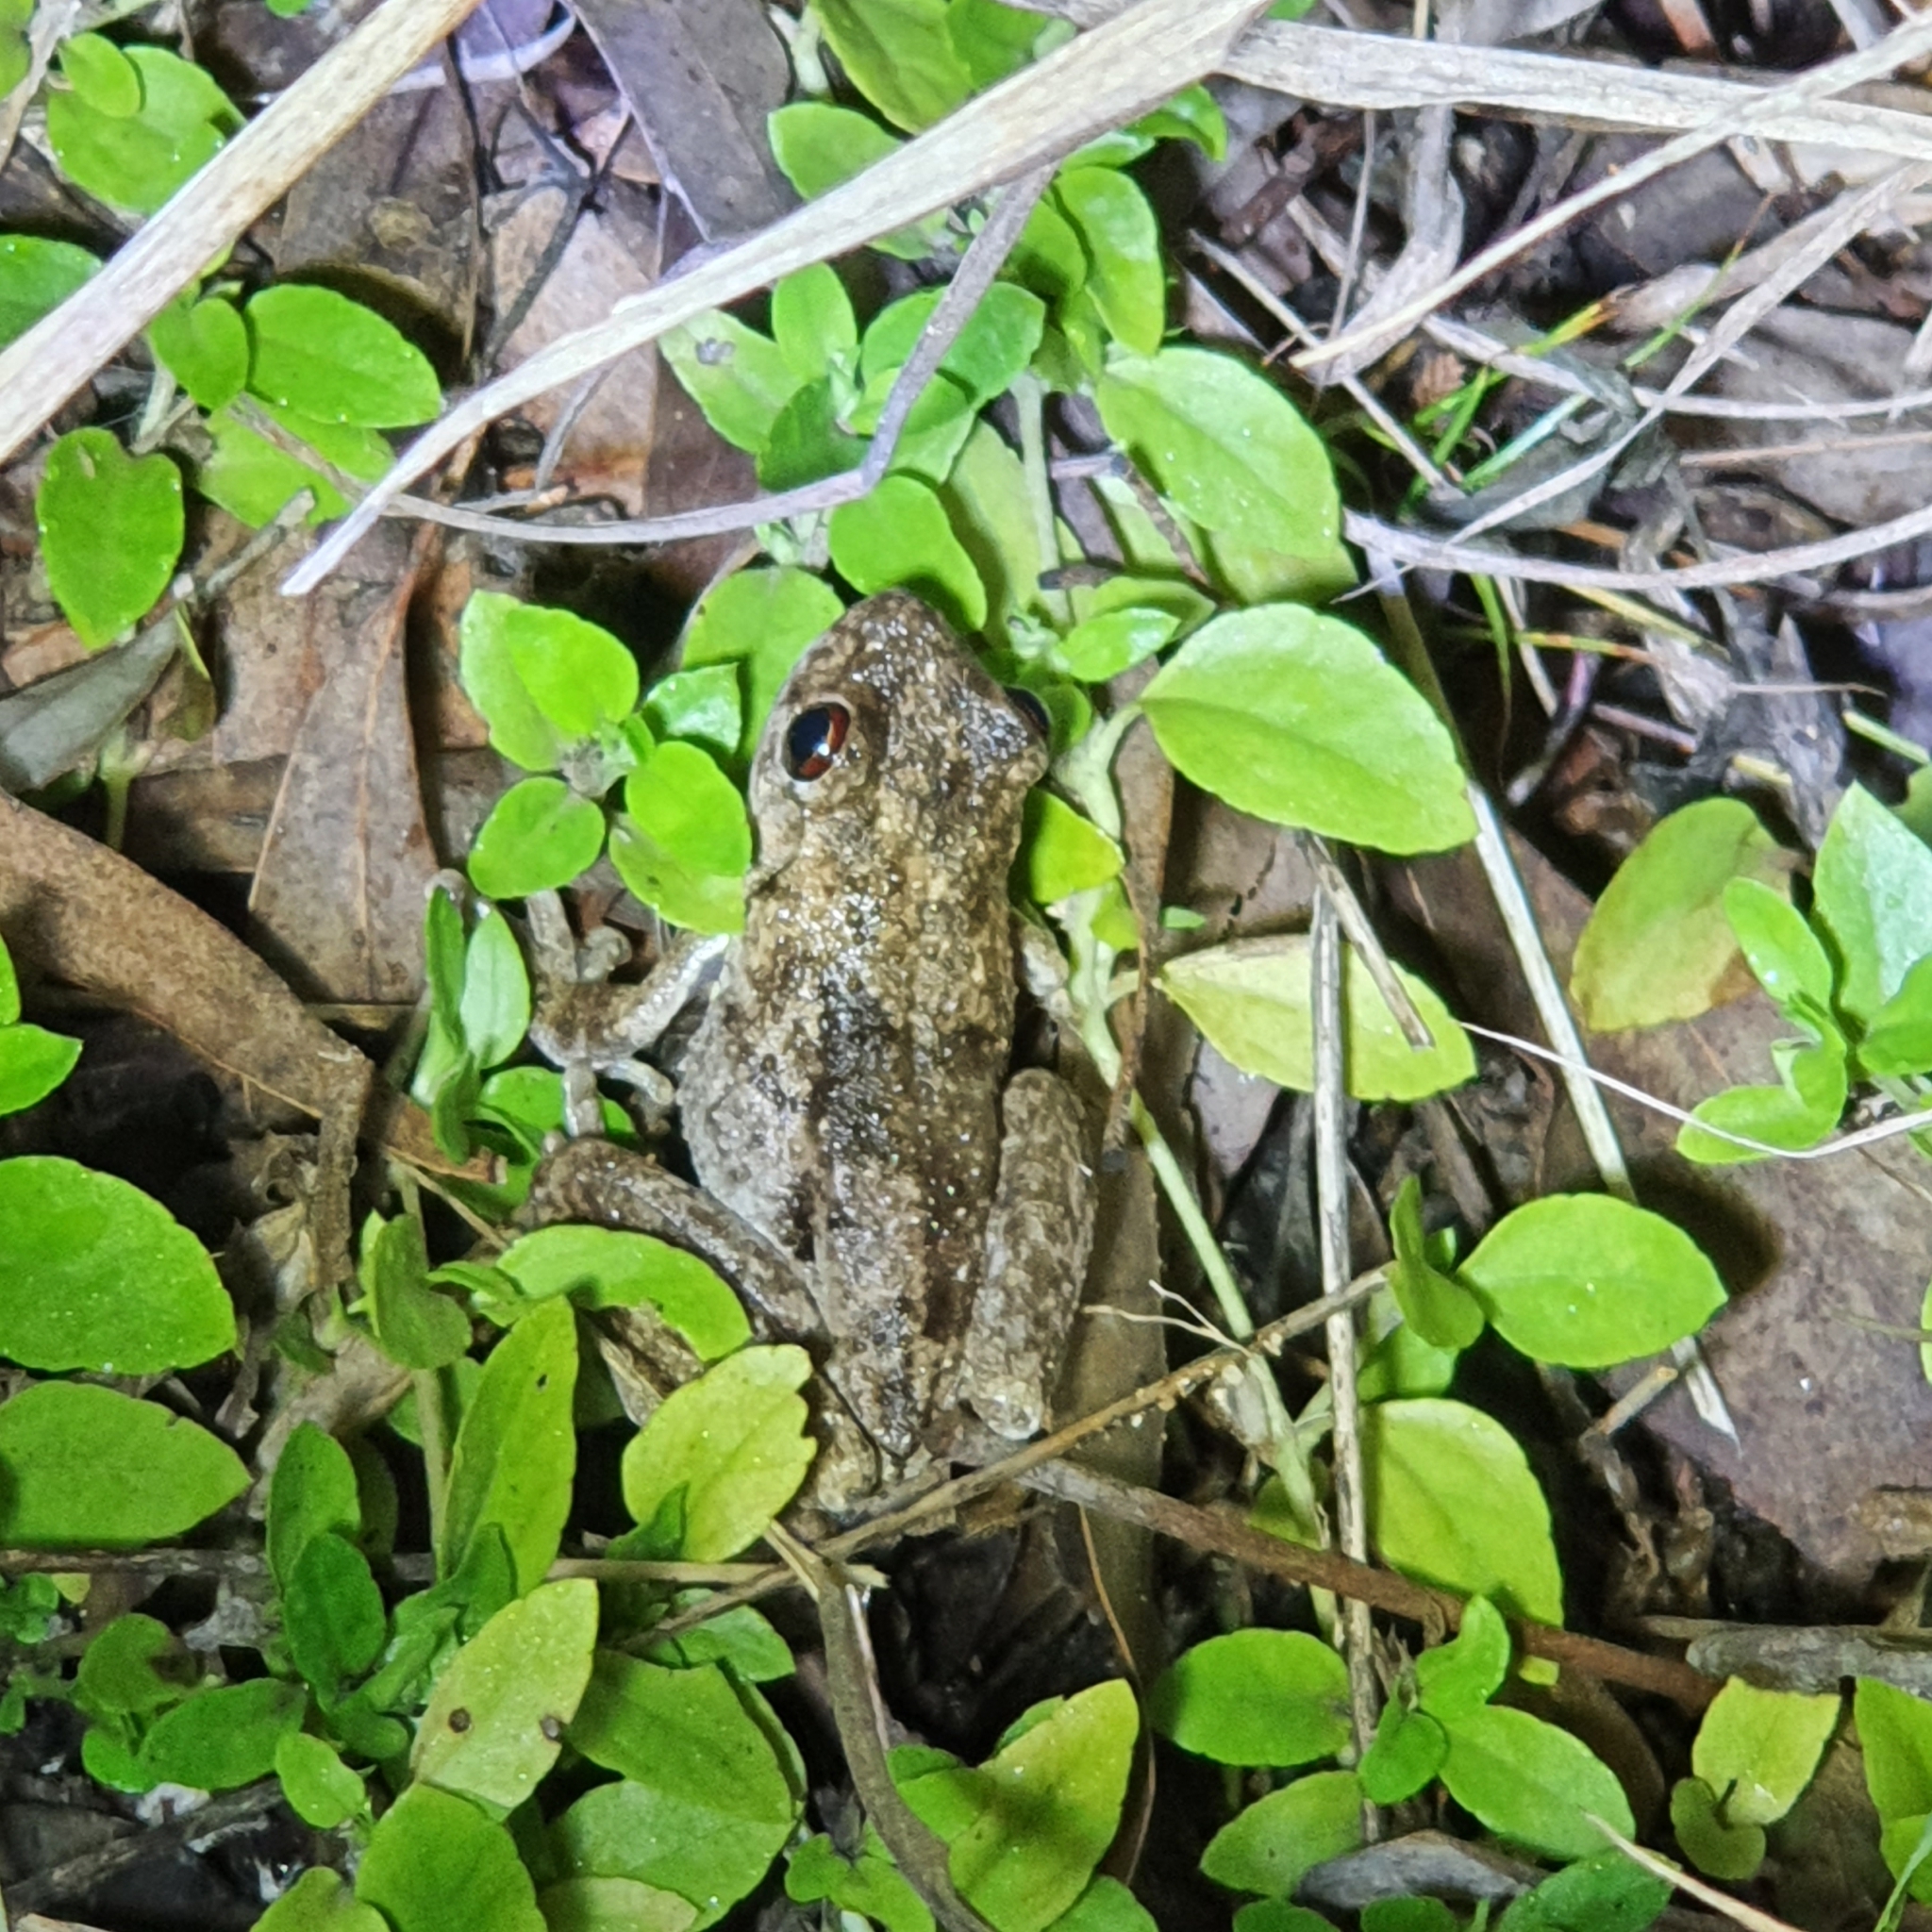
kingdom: Animalia
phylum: Chordata
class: Amphibia
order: Anura
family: Pelodryadidae
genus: Litoria
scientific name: Litoria rothii
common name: Roth’s tree frog
